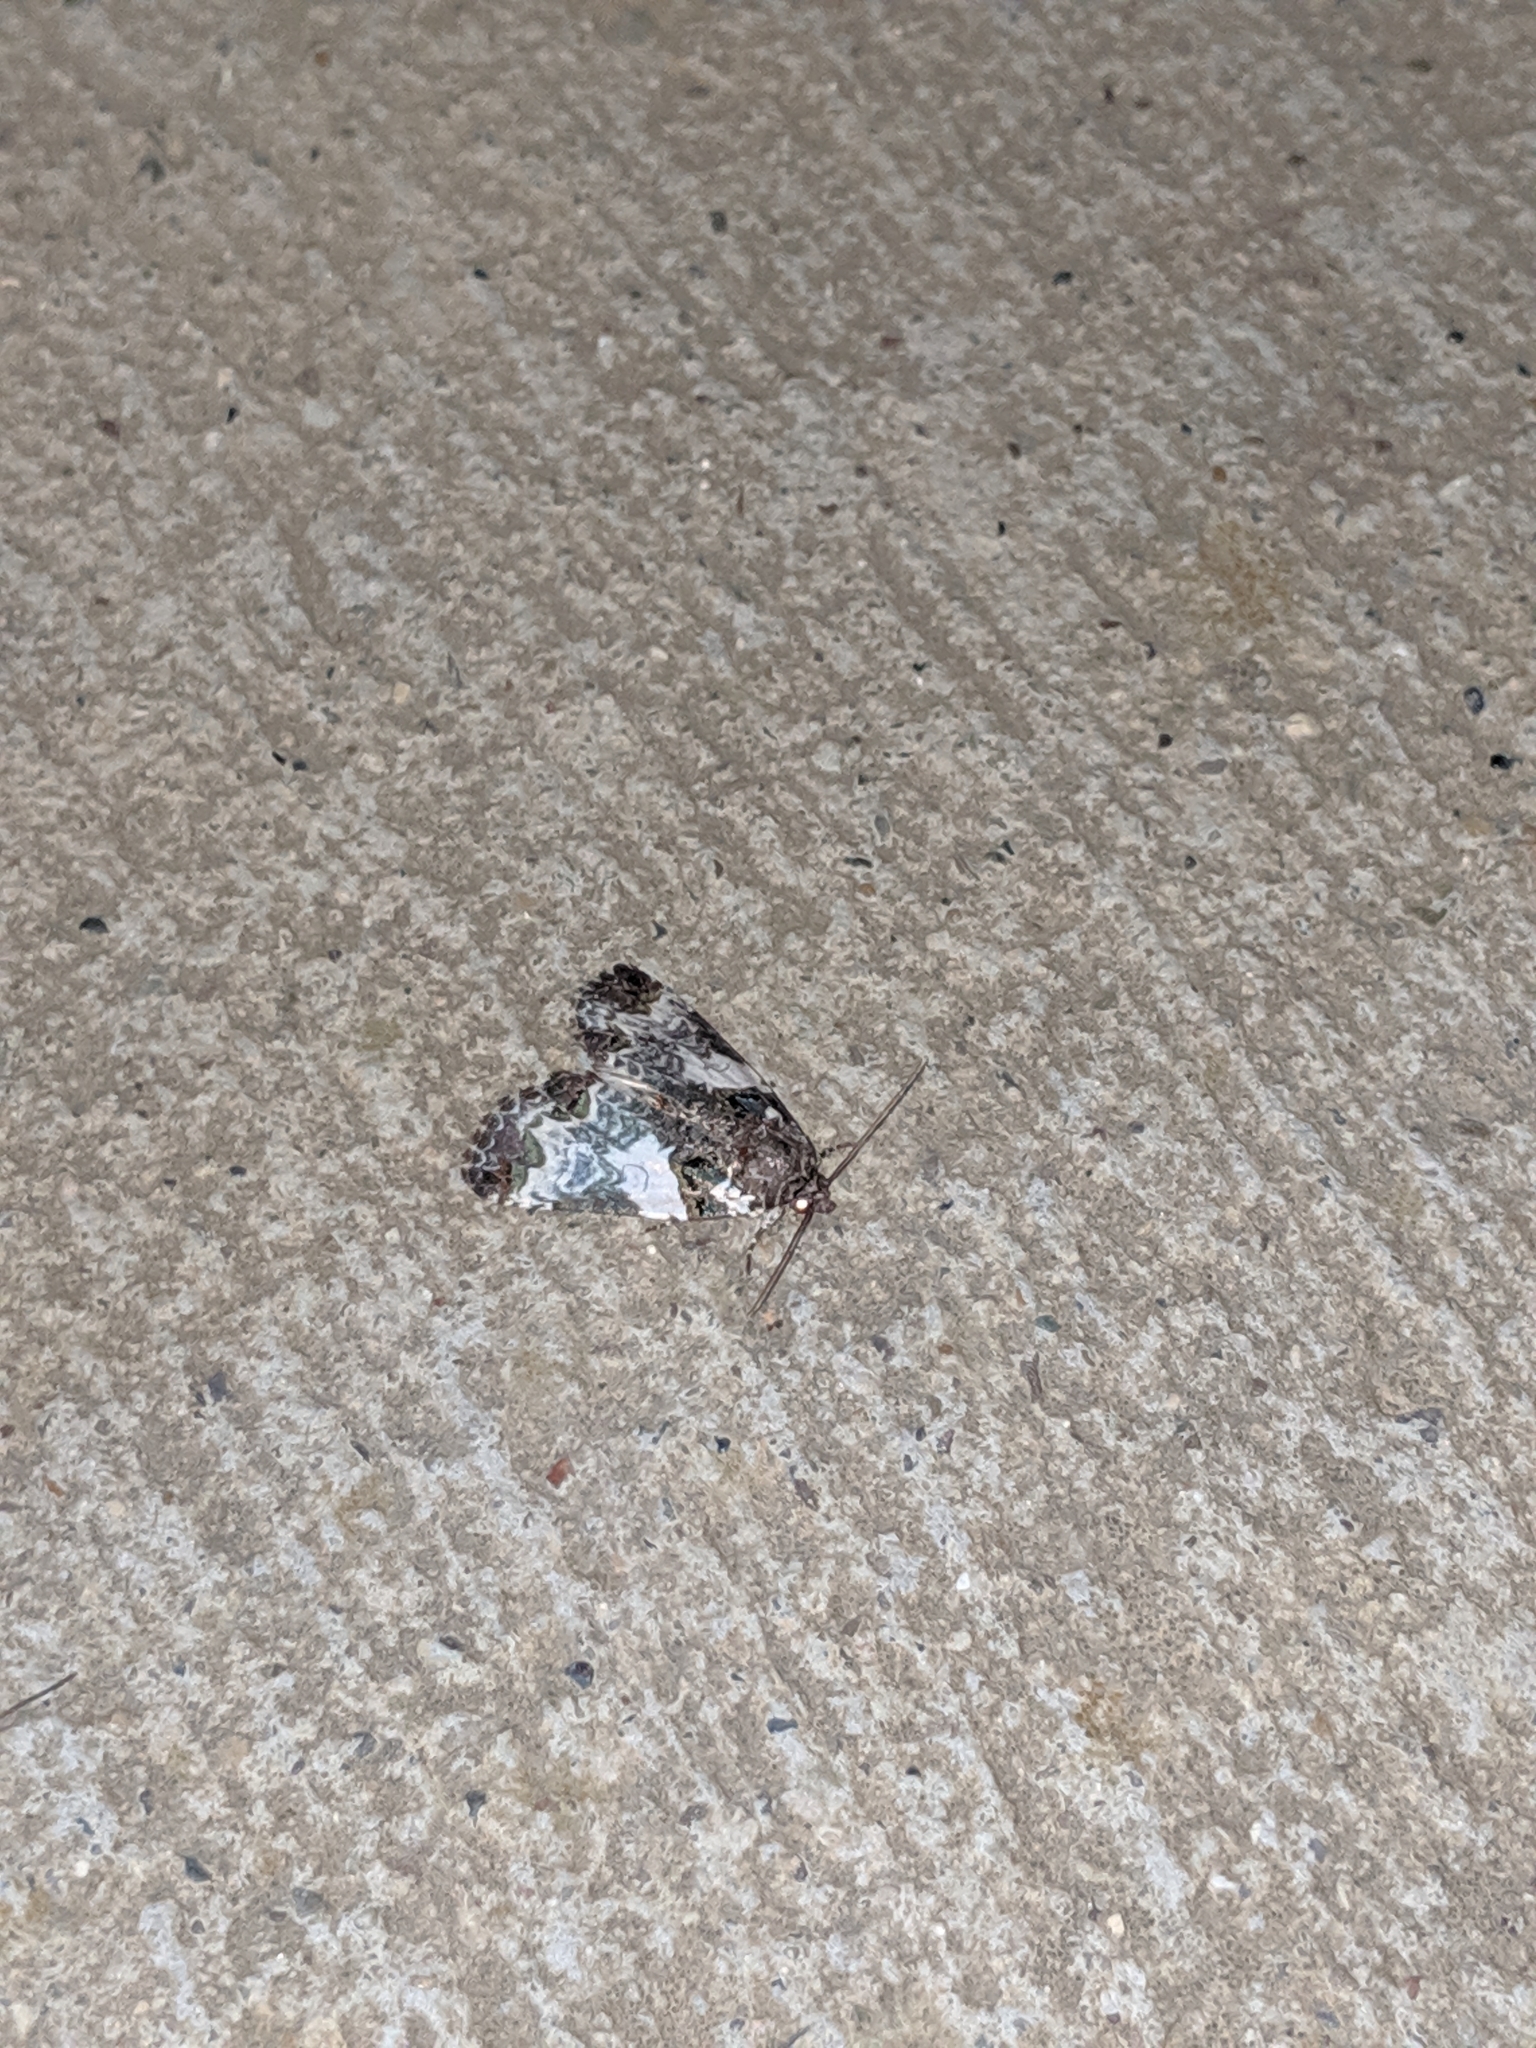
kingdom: Animalia
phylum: Arthropoda
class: Insecta
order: Lepidoptera
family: Noctuidae
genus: Cerma
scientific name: Cerma cerintha
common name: Tufted bird-dropping moth
